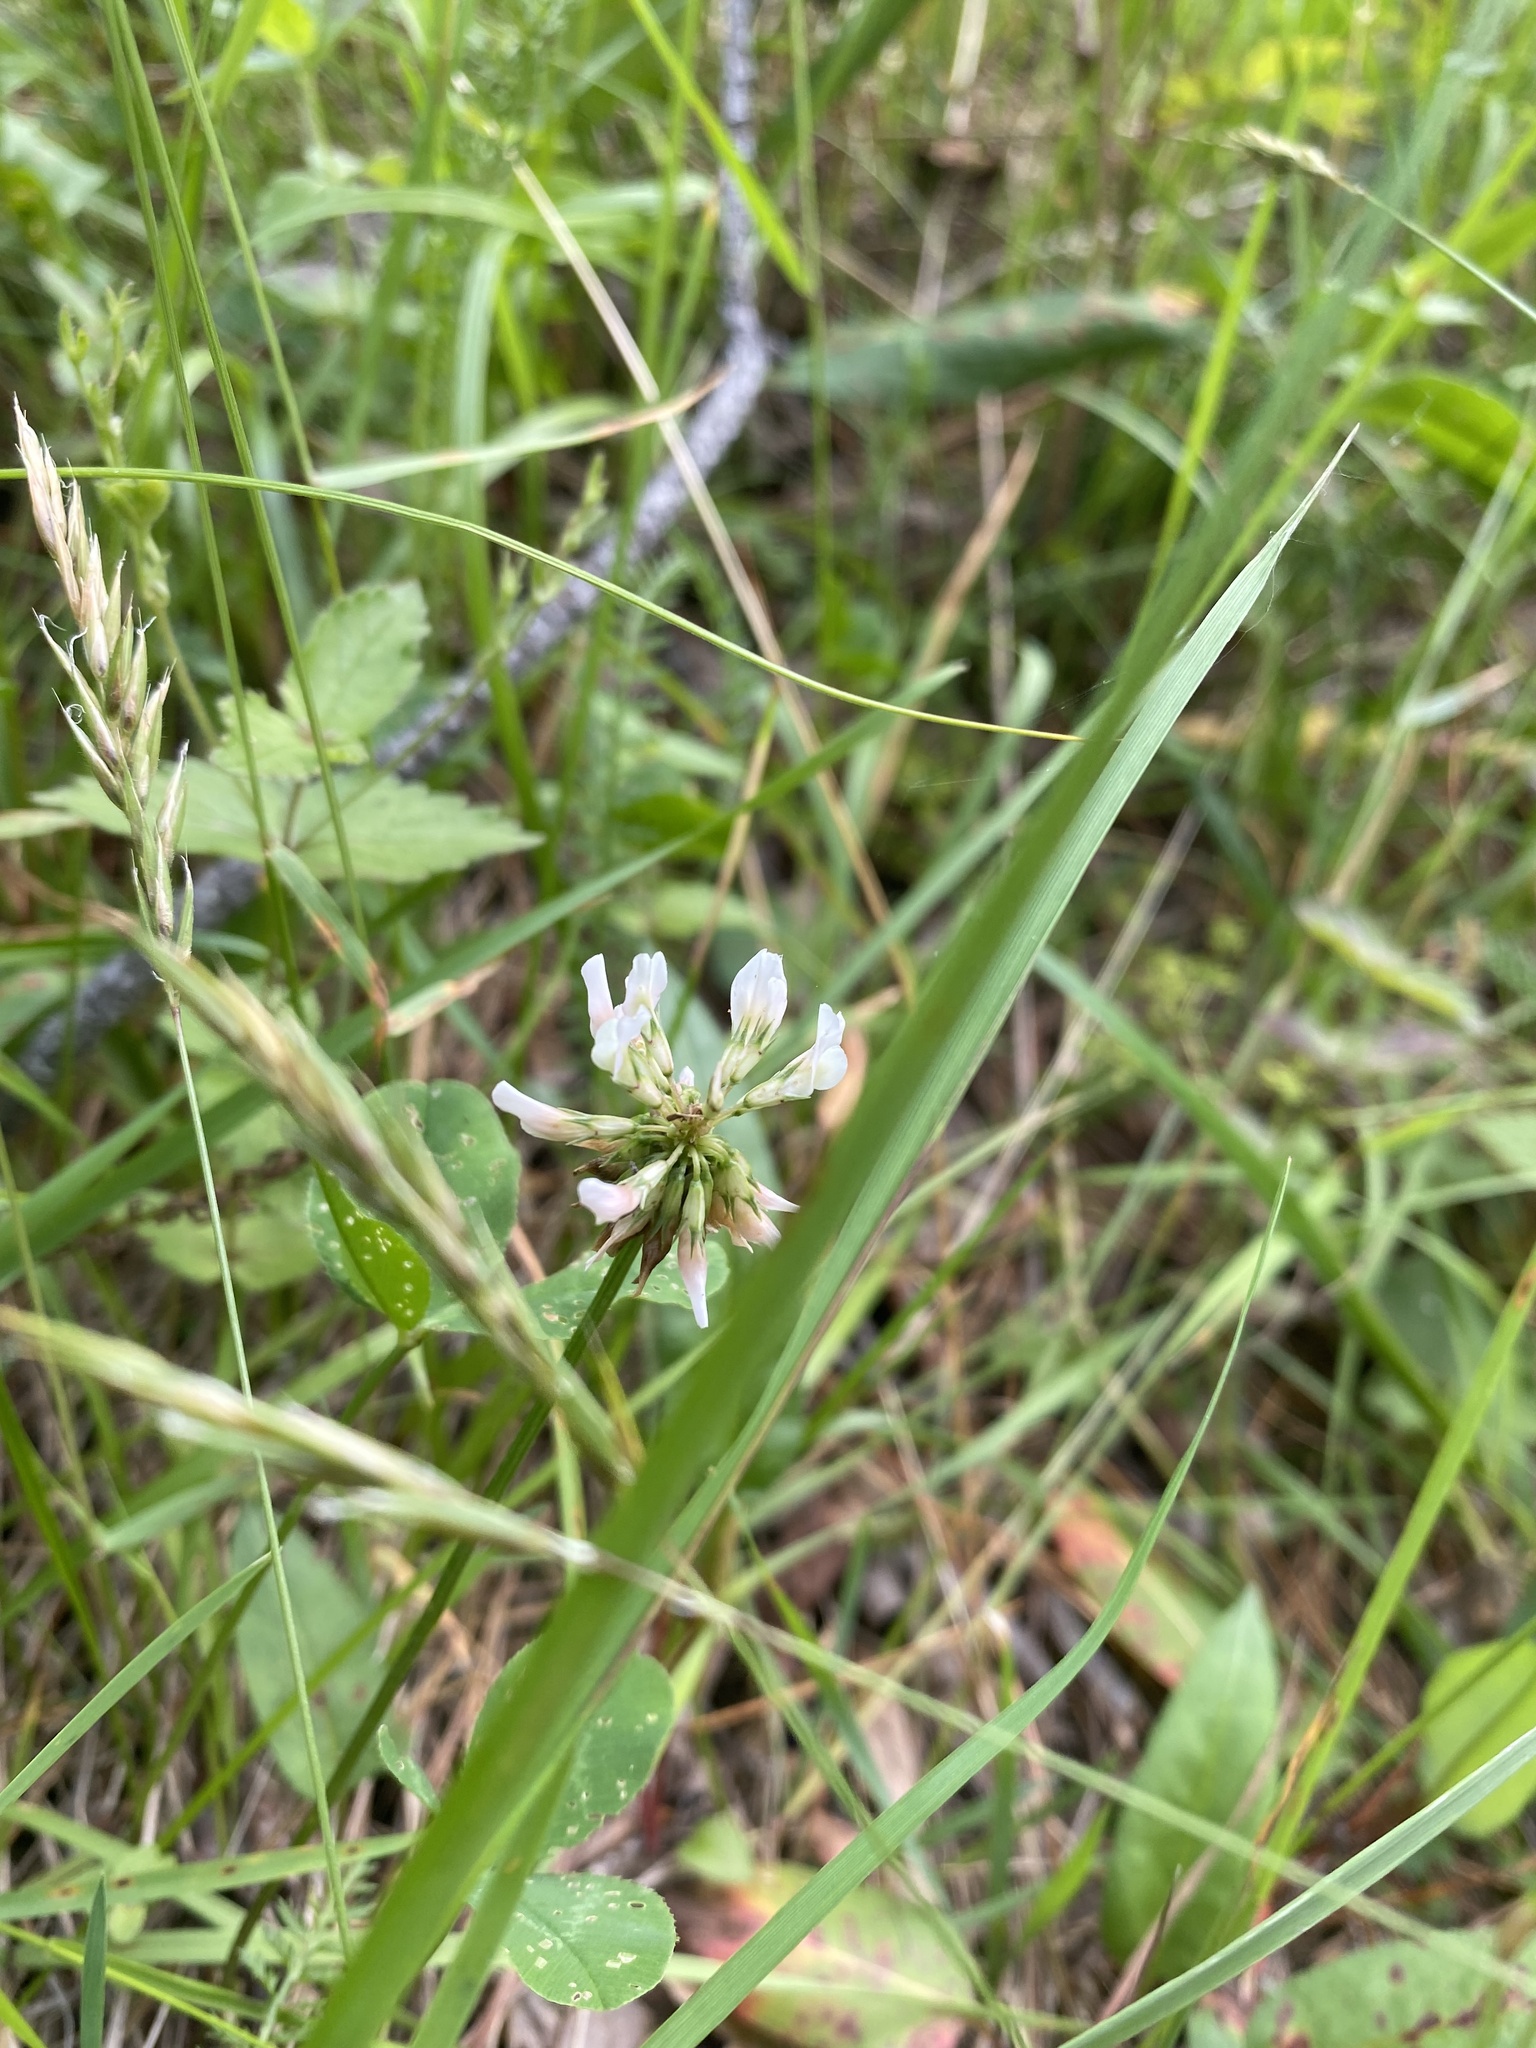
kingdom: Plantae
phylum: Tracheophyta
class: Magnoliopsida
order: Fabales
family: Fabaceae
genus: Trifolium
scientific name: Trifolium repens
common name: White clover
